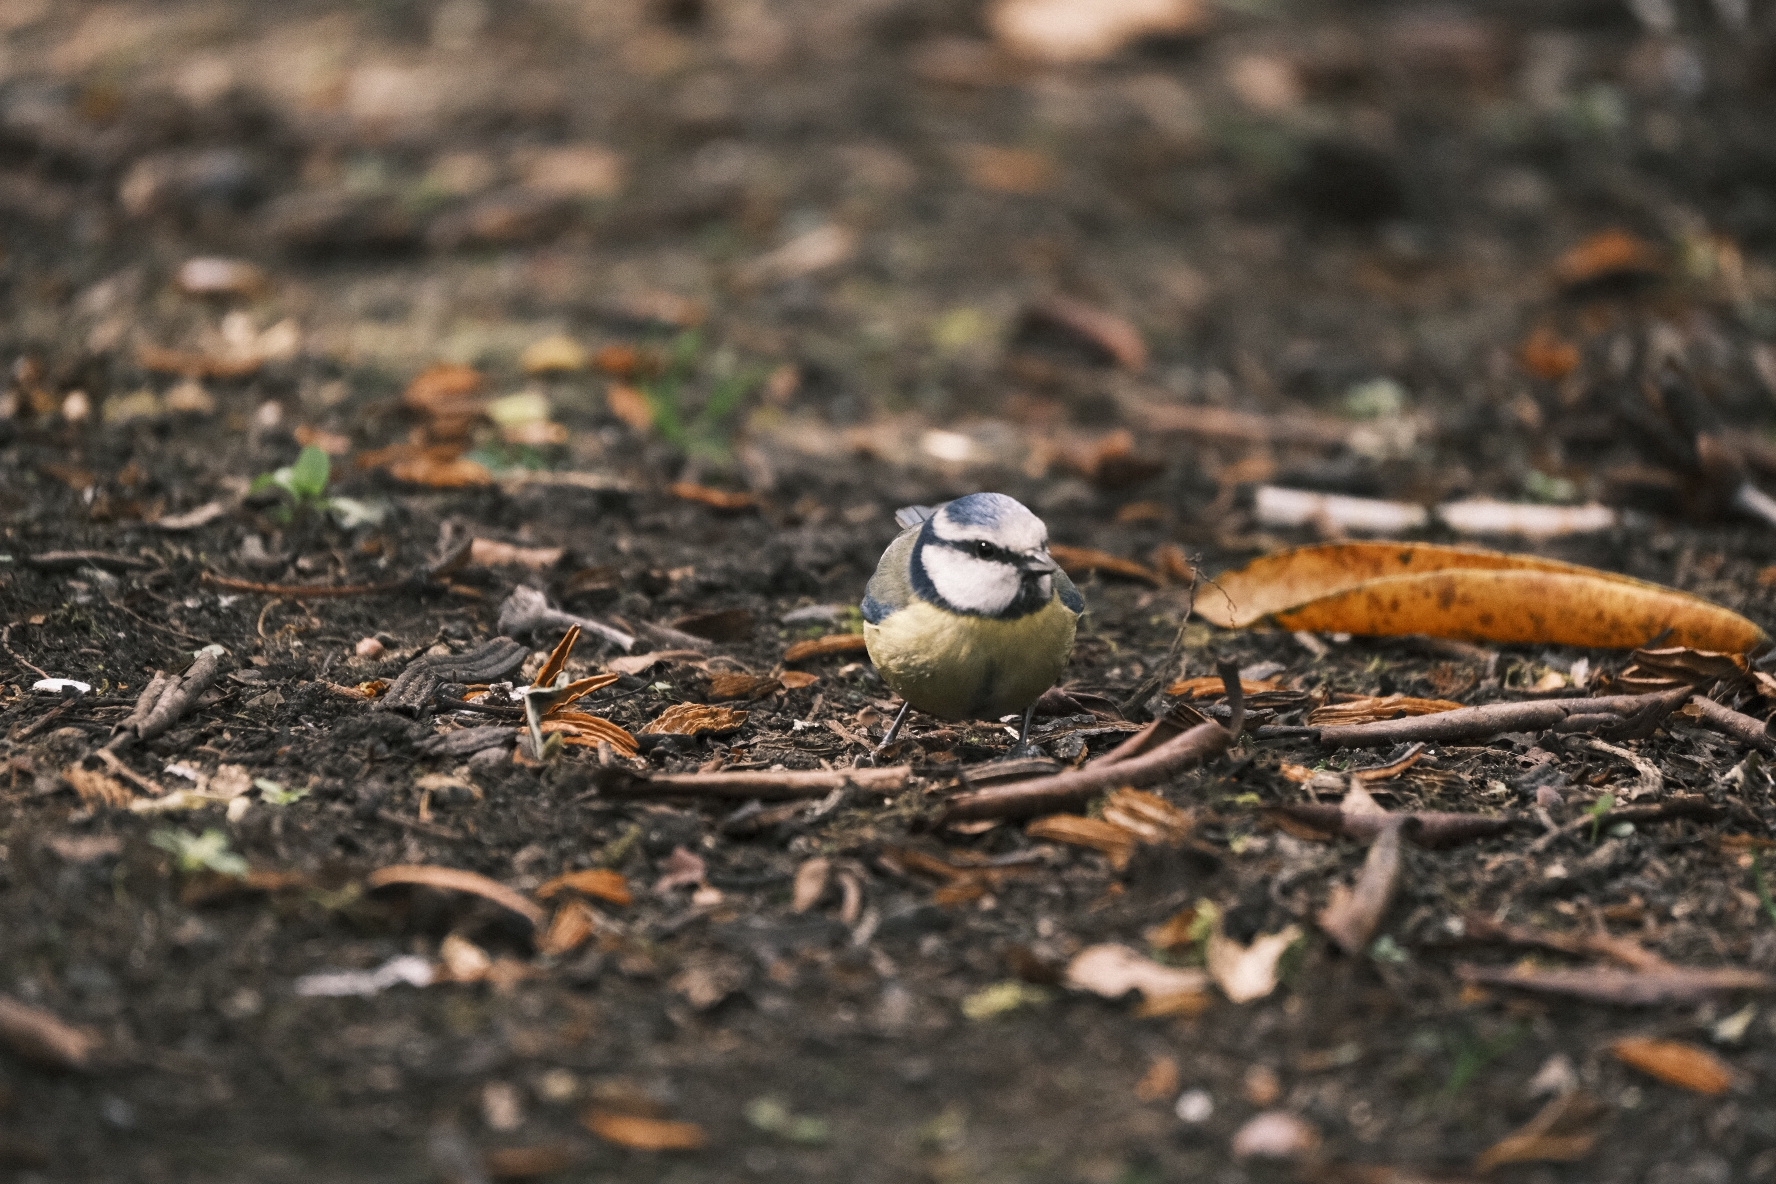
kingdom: Animalia
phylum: Chordata
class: Aves
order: Passeriformes
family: Paridae
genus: Cyanistes
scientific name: Cyanistes caeruleus
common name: Eurasian blue tit
